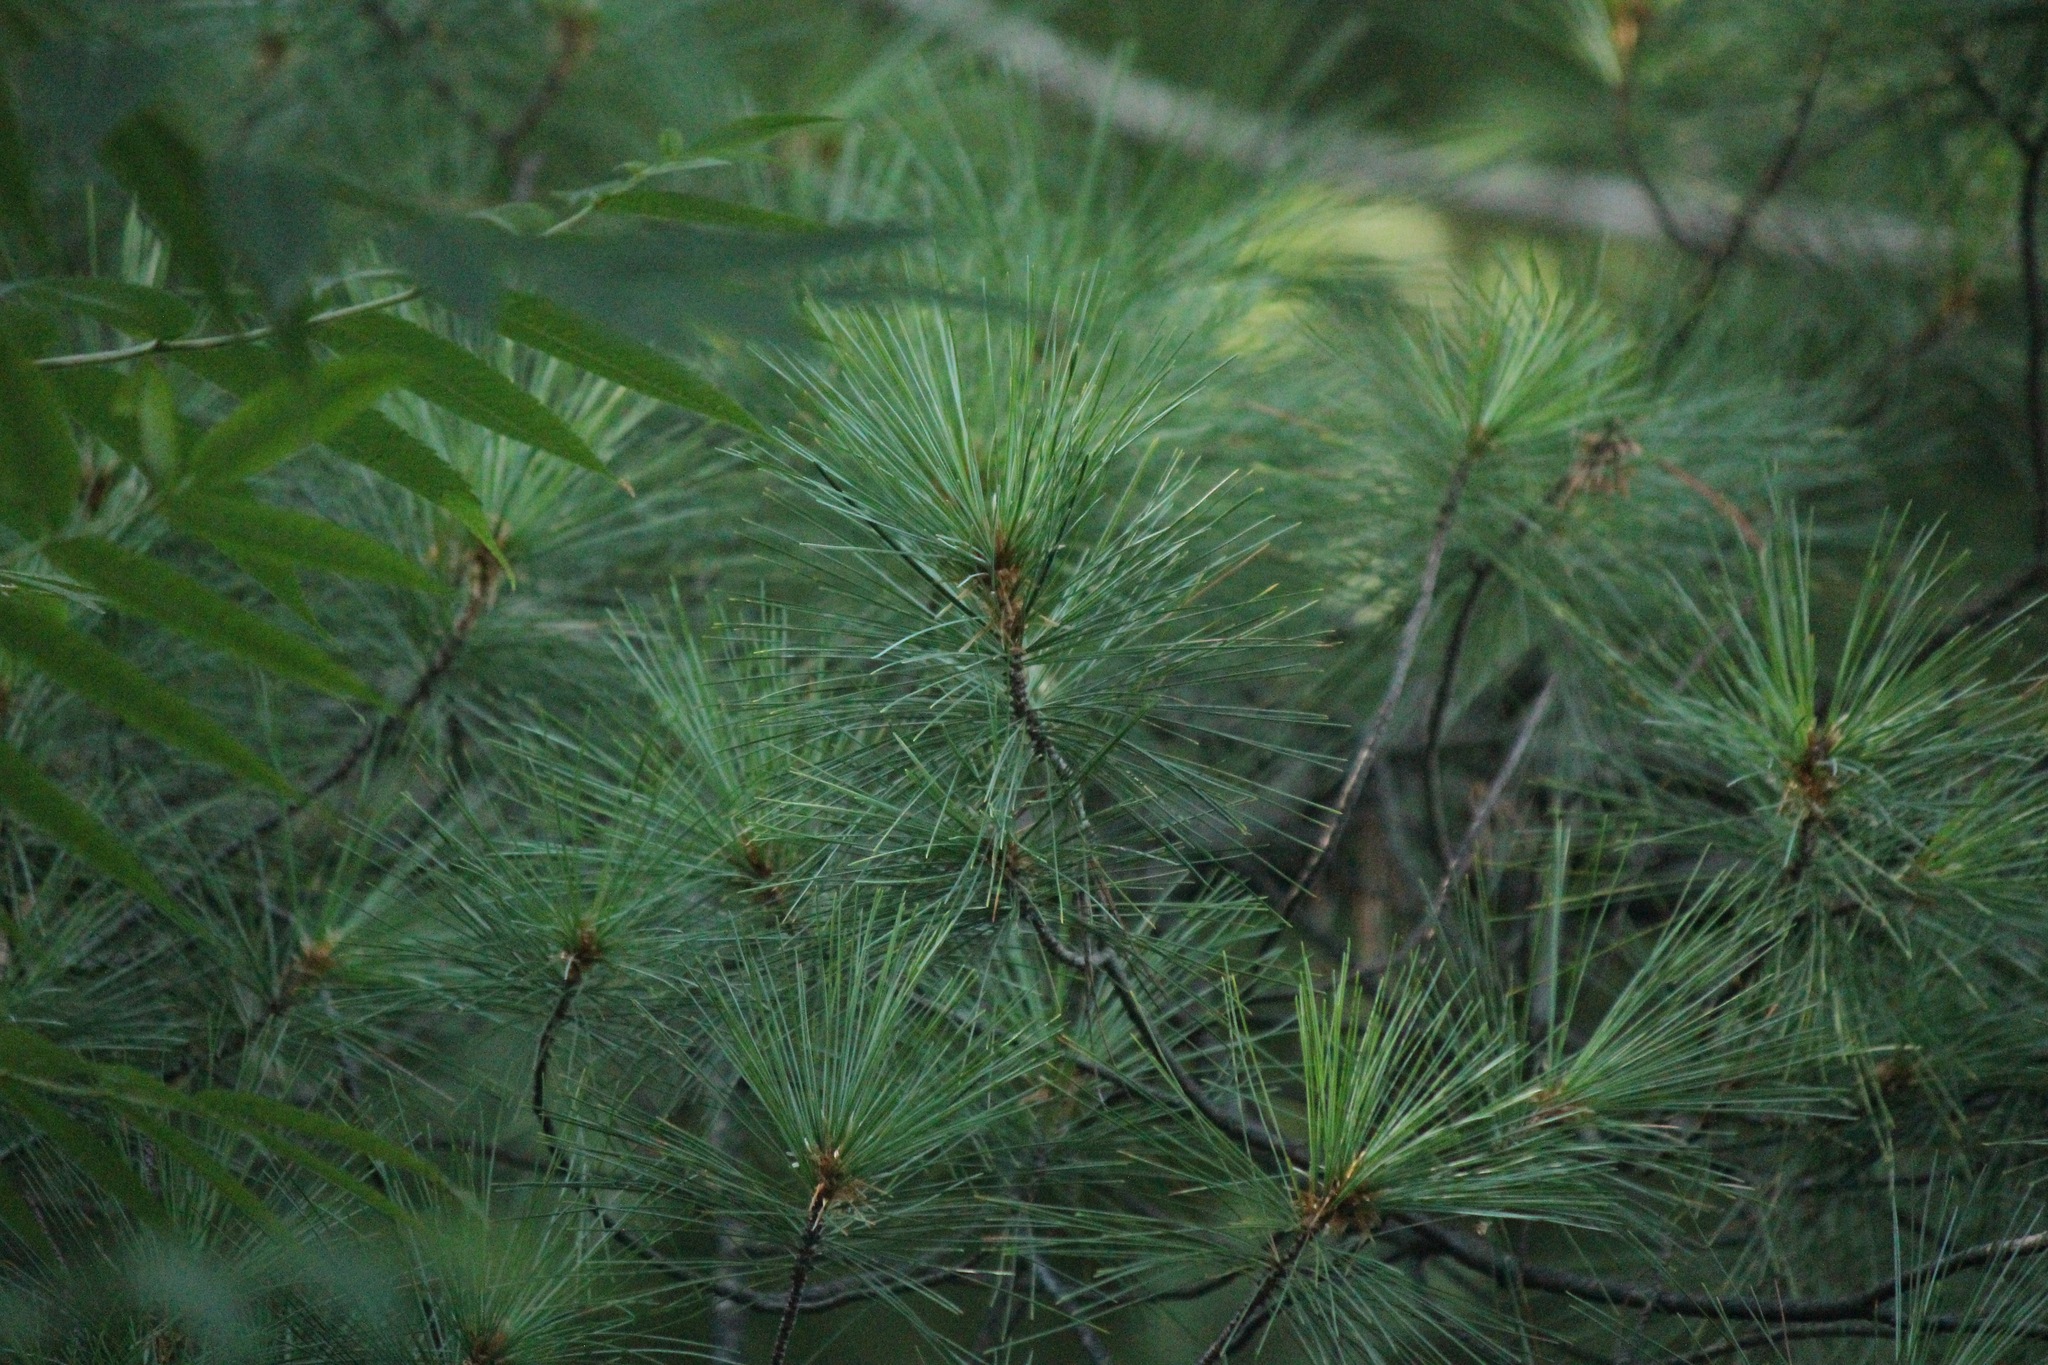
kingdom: Plantae
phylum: Tracheophyta
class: Pinopsida
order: Pinales
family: Pinaceae
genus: Pinus
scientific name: Pinus strobus
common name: Weymouth pine
